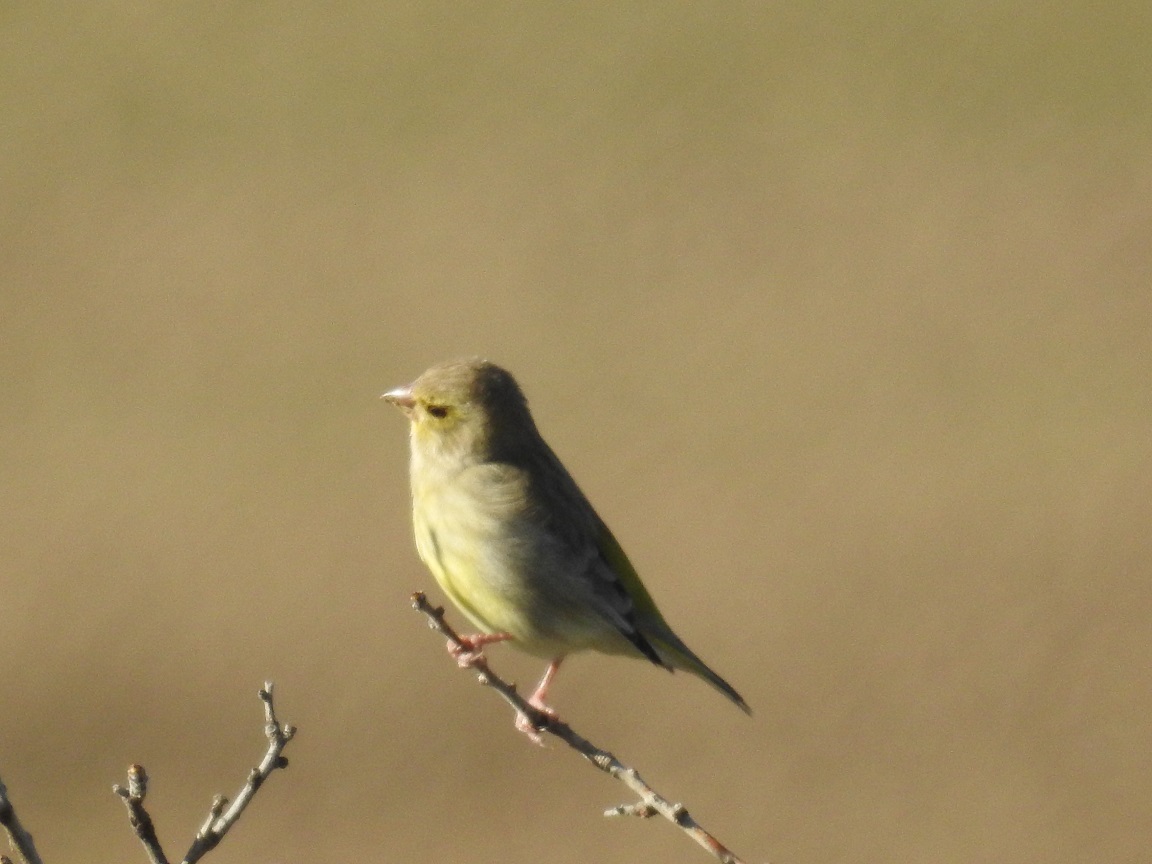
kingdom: Plantae
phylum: Tracheophyta
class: Liliopsida
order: Poales
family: Poaceae
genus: Chloris
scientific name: Chloris chloris
